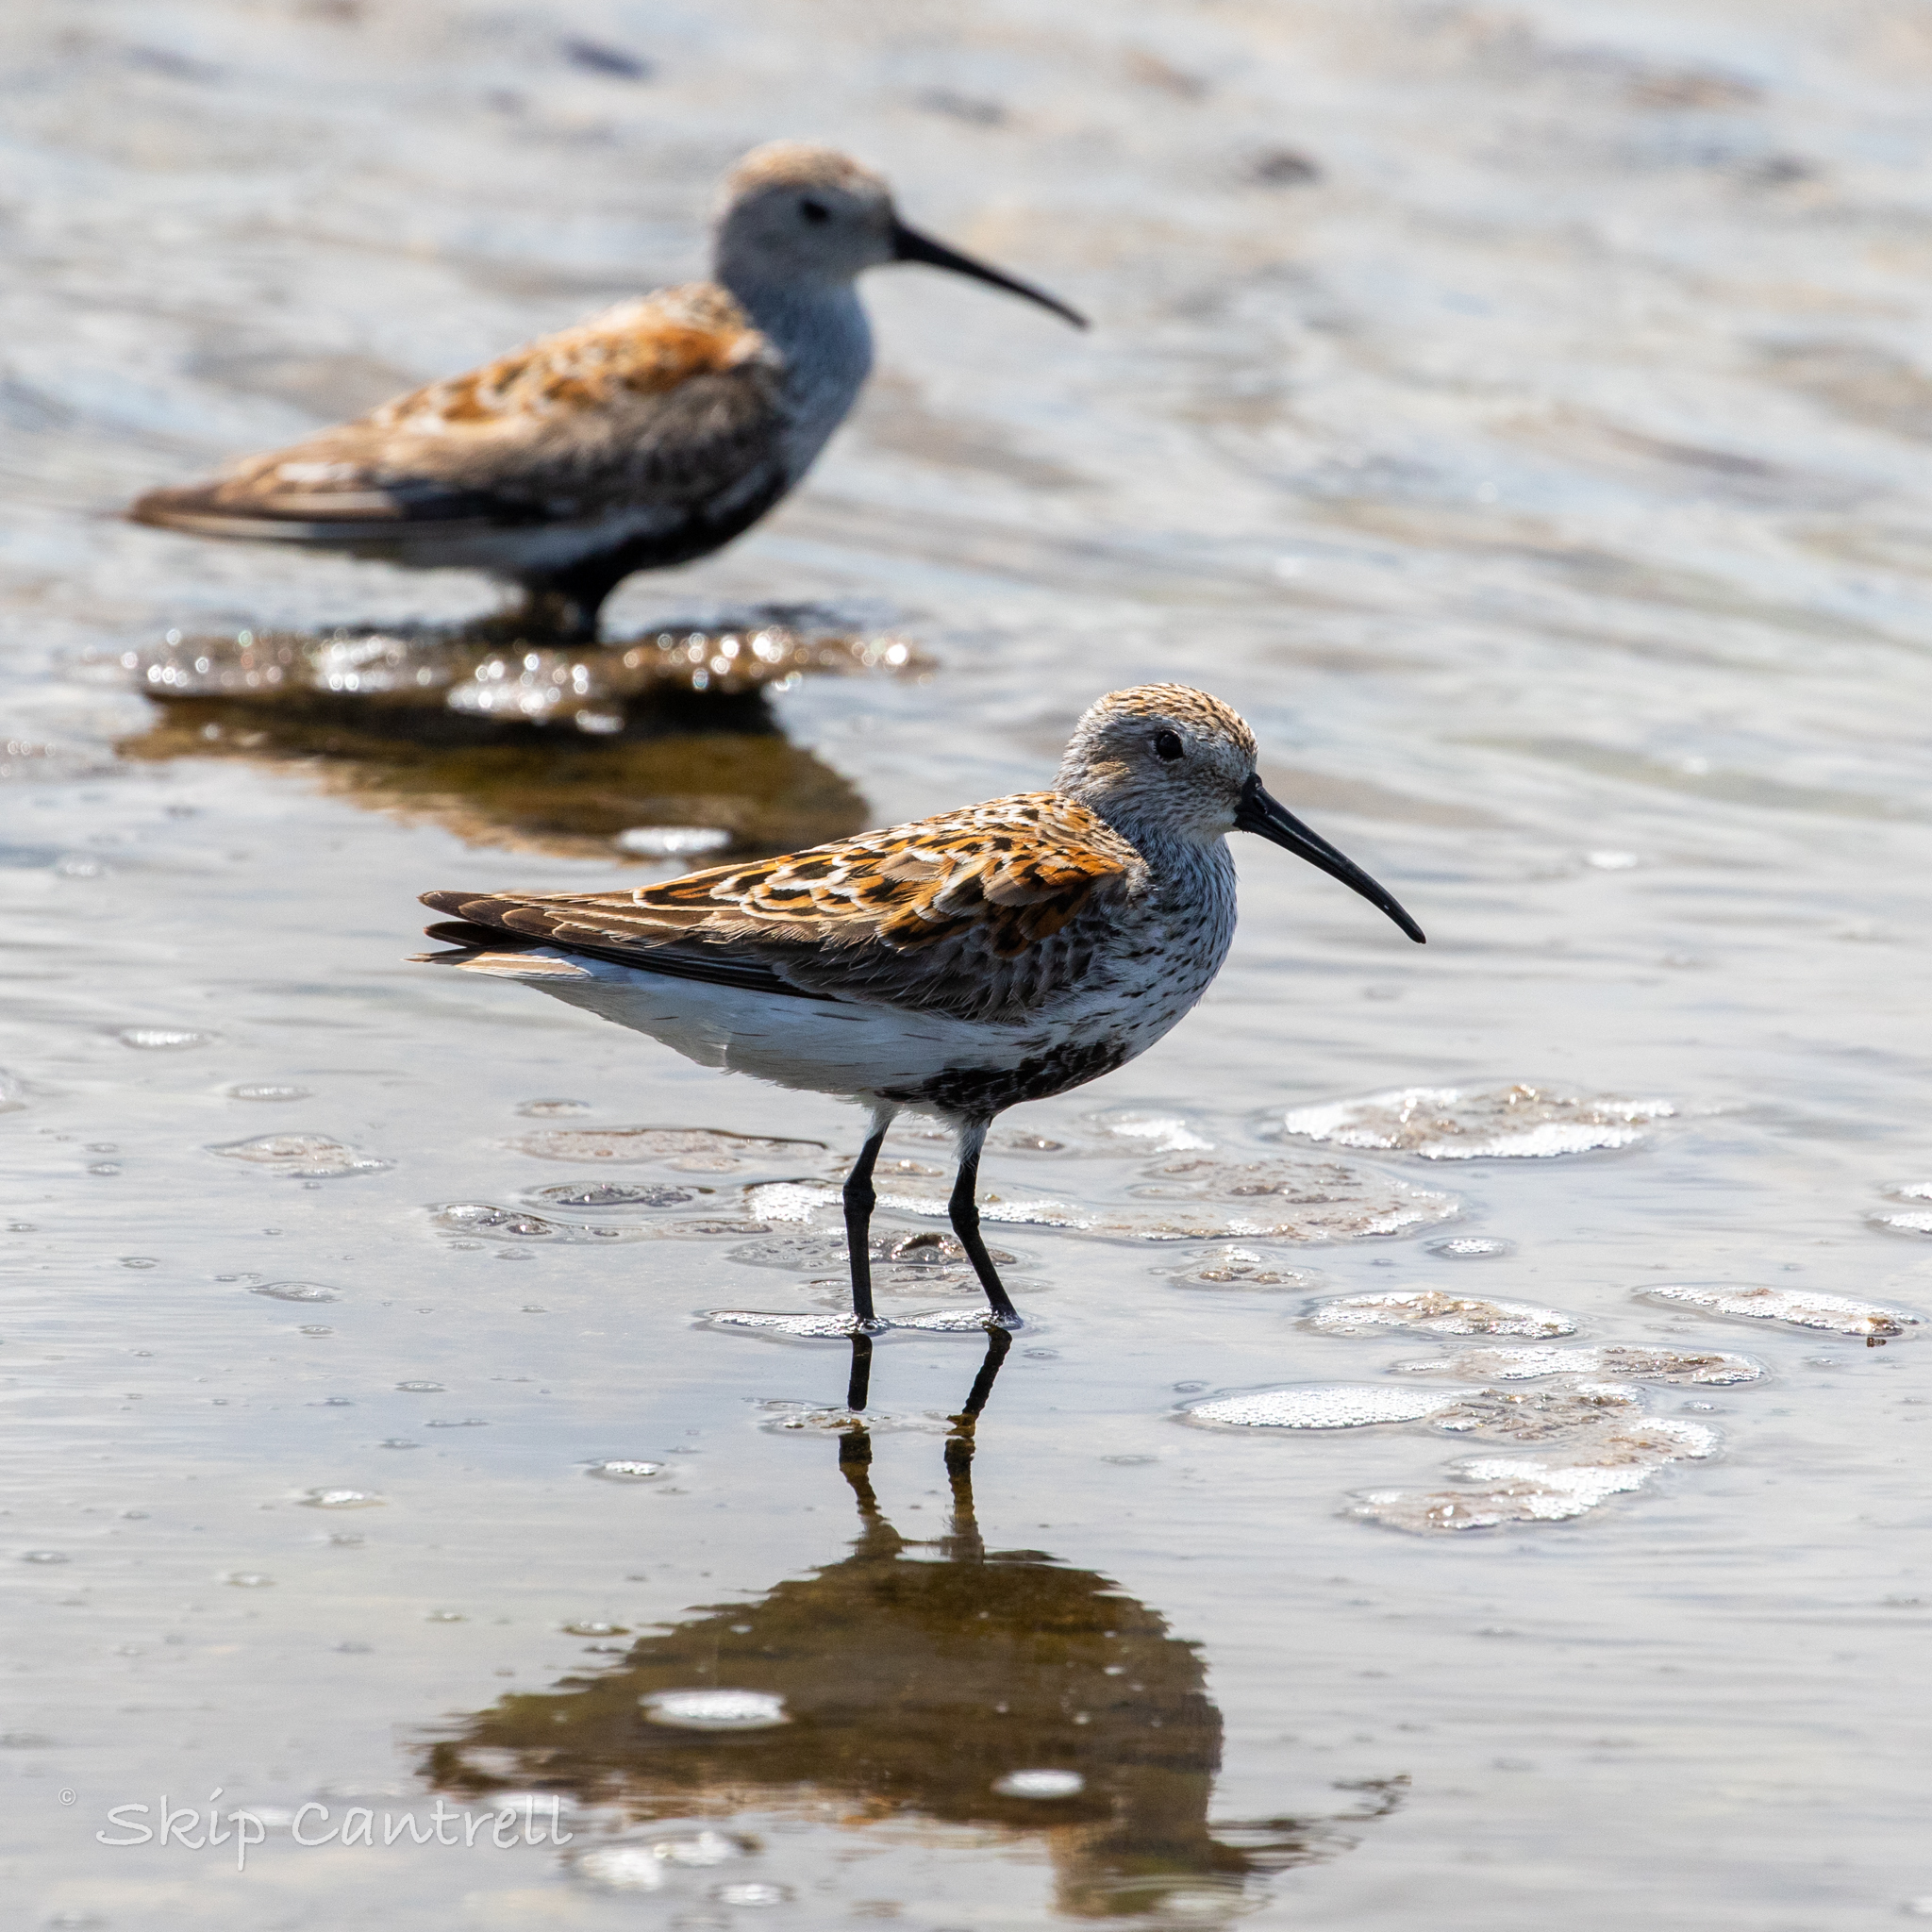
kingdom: Animalia
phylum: Chordata
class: Aves
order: Charadriiformes
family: Scolopacidae
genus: Calidris
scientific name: Calidris alpina
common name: Dunlin
